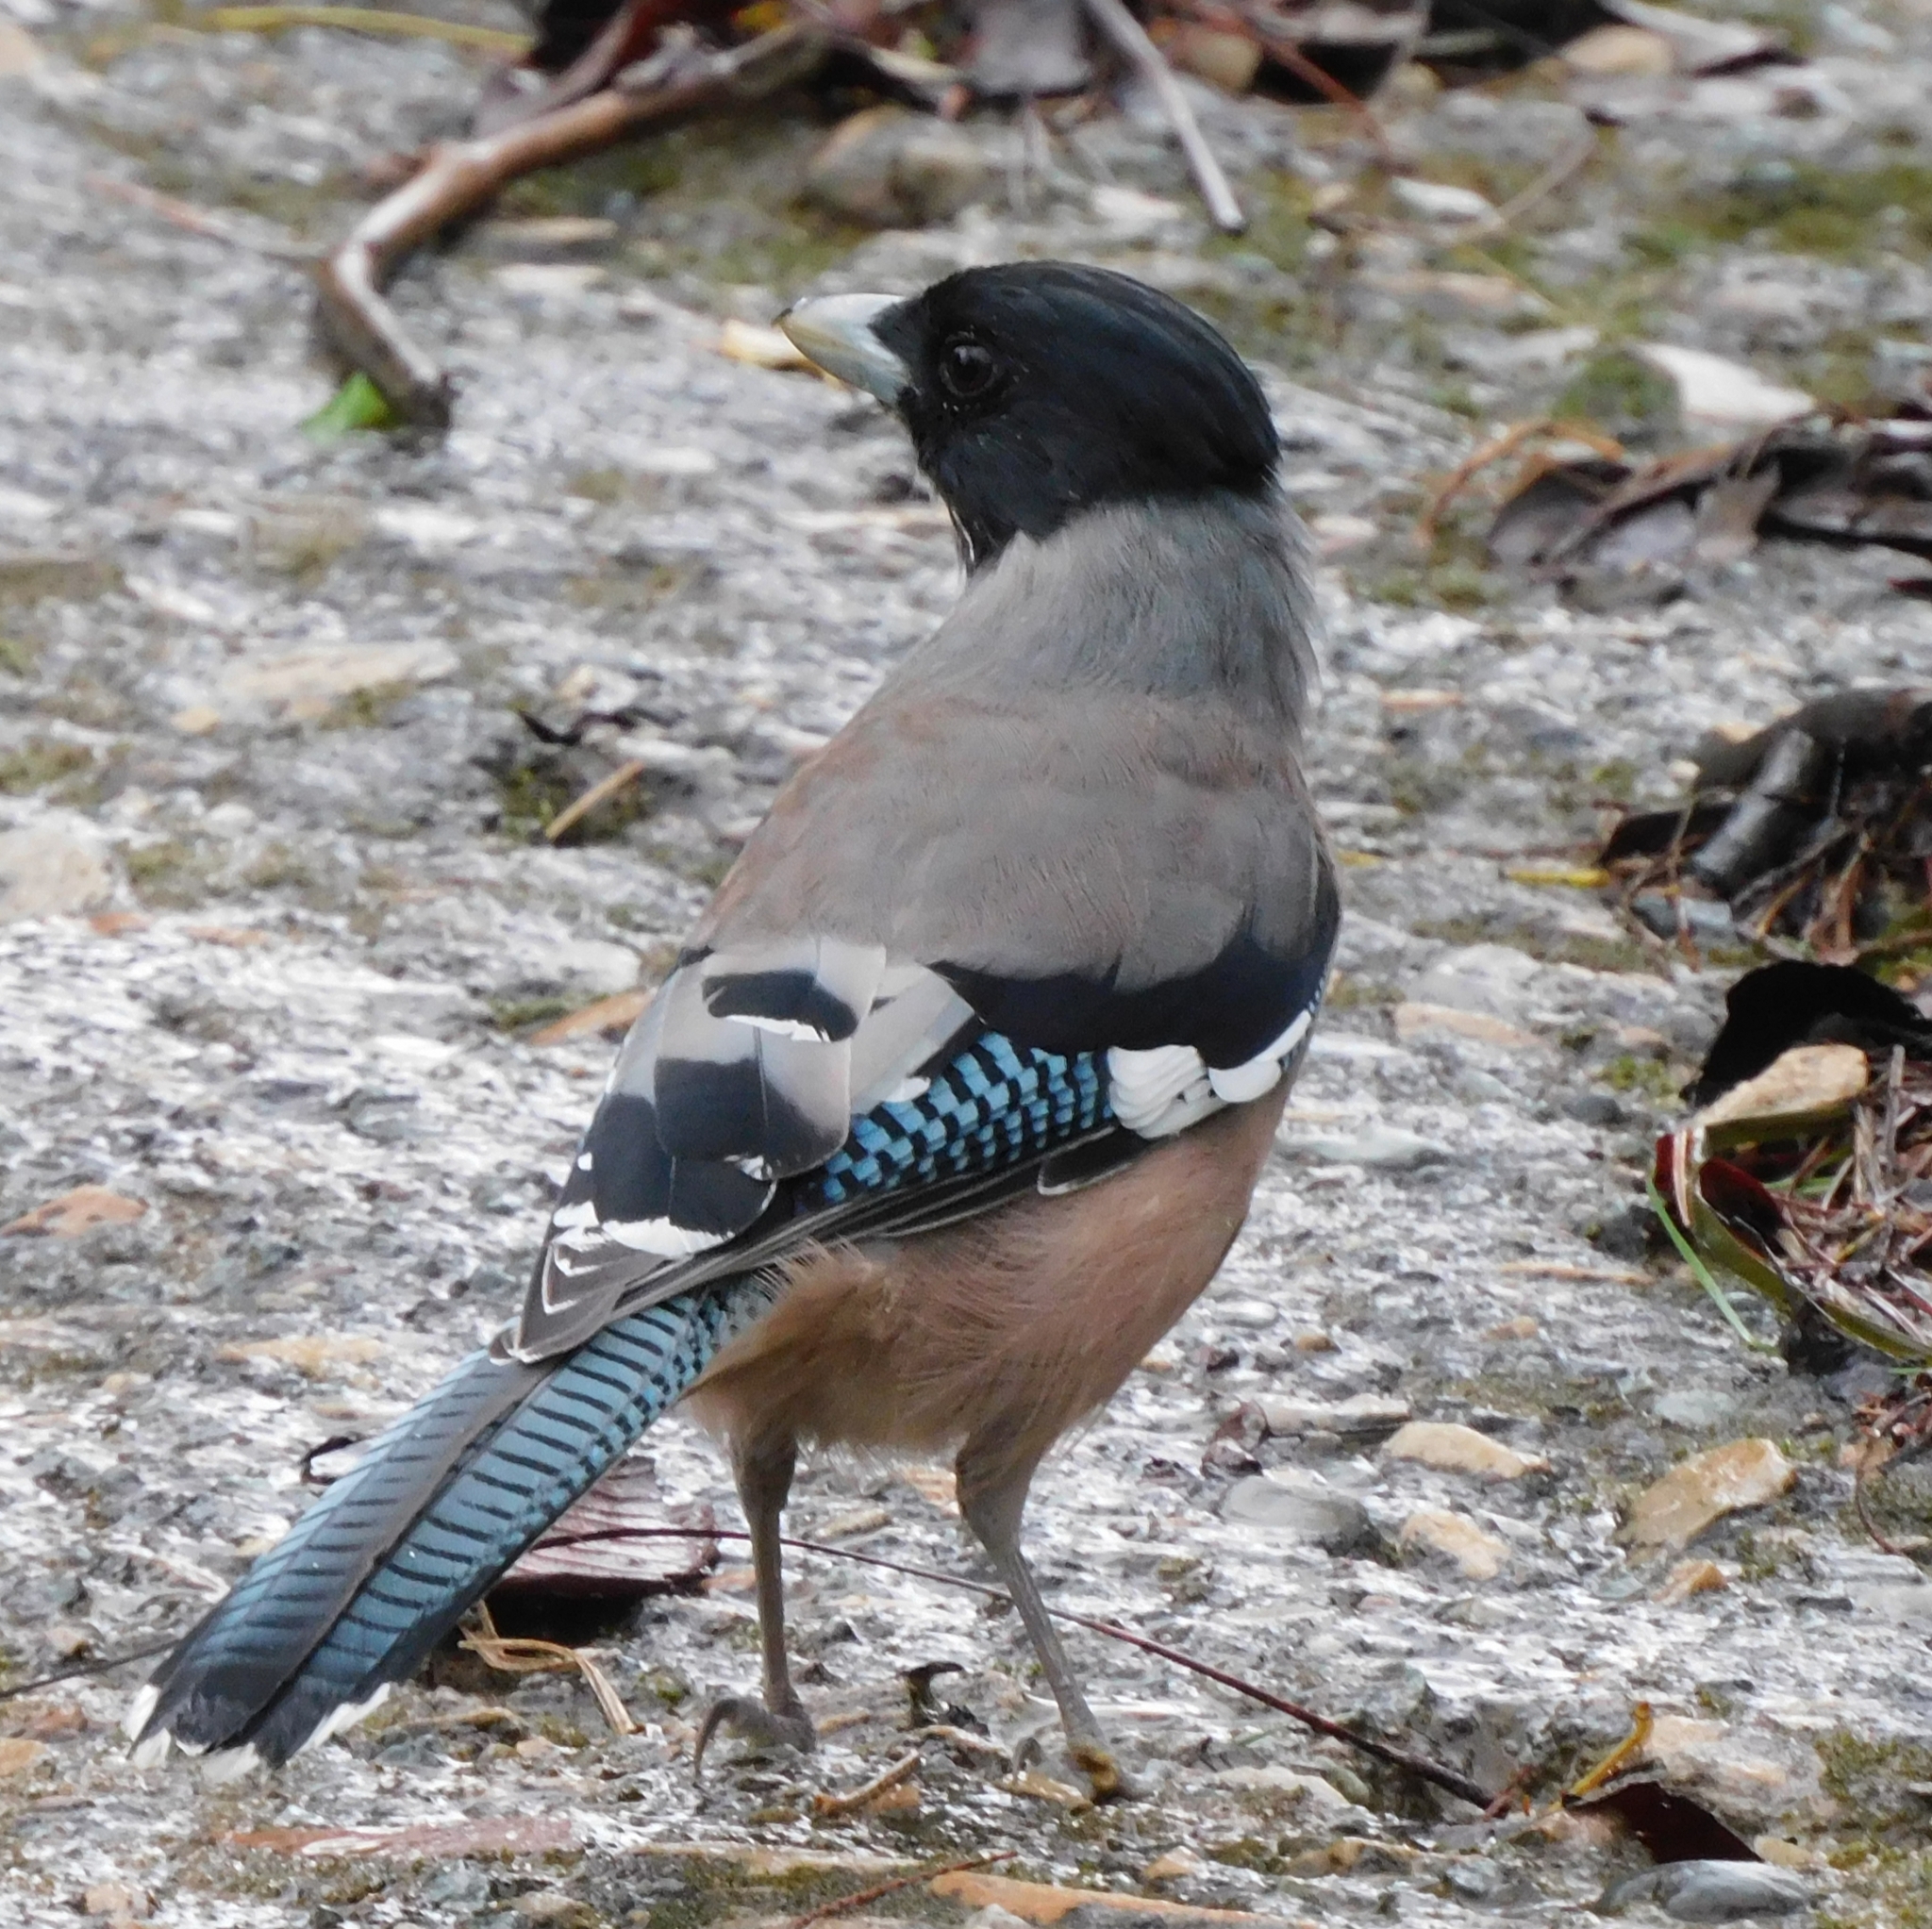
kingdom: Animalia
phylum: Chordata
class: Aves
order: Passeriformes
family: Corvidae
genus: Garrulus
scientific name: Garrulus lanceolatus
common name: Black-headed jay
